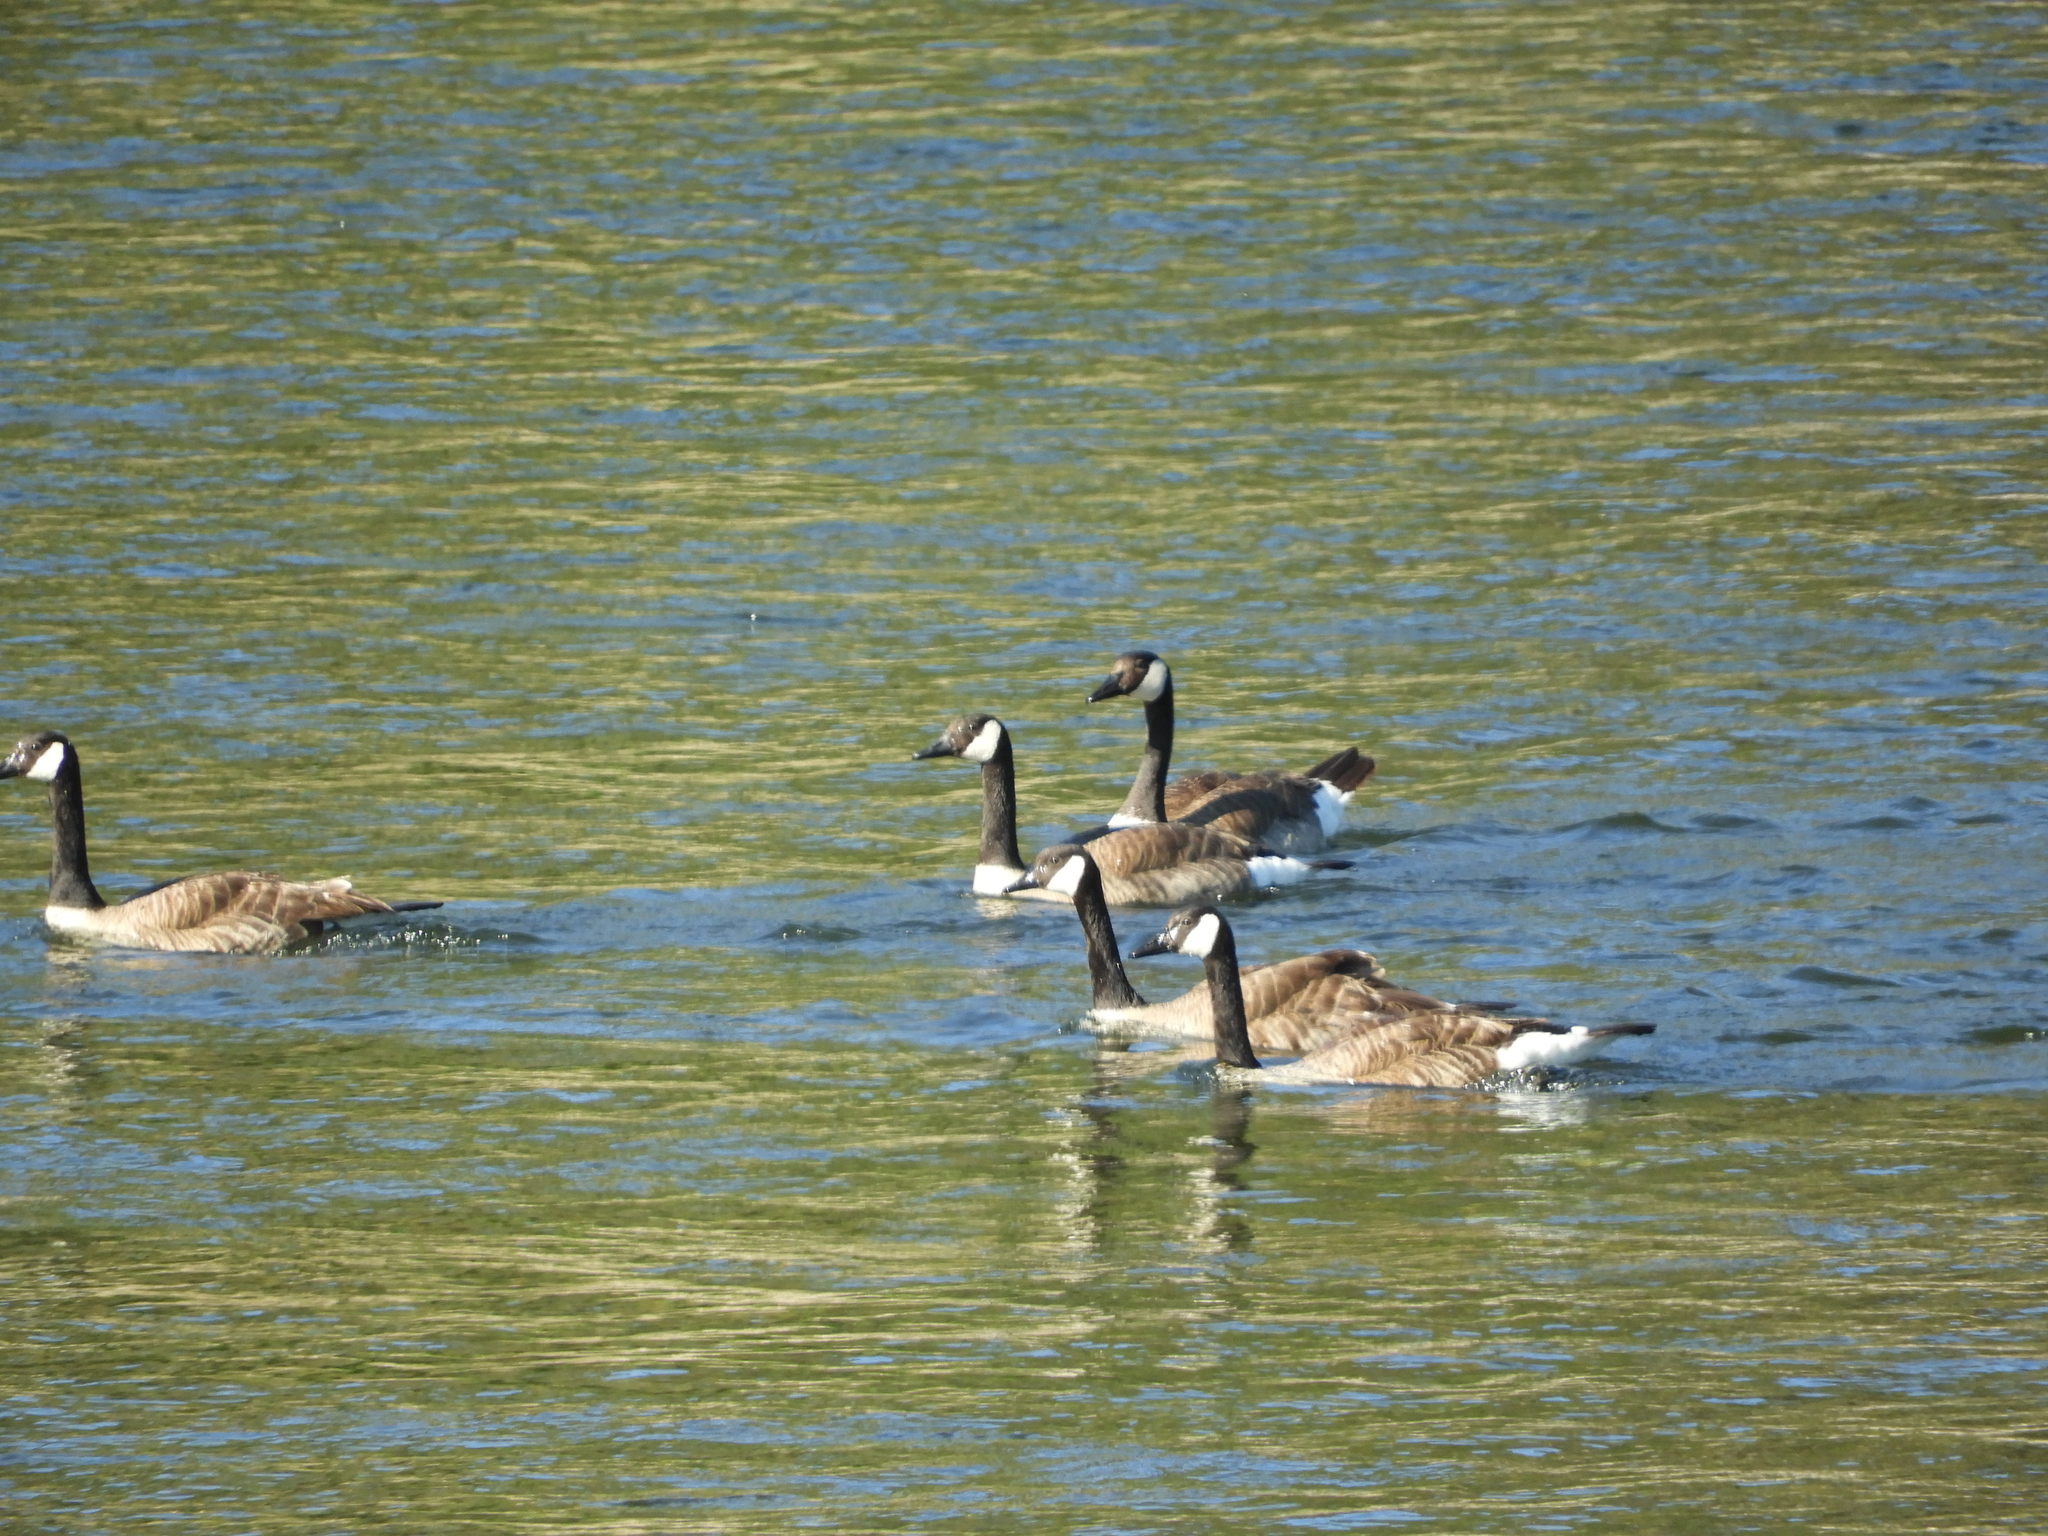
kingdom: Animalia
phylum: Chordata
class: Aves
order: Anseriformes
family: Anatidae
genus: Branta
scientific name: Branta canadensis
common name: Canada goose
